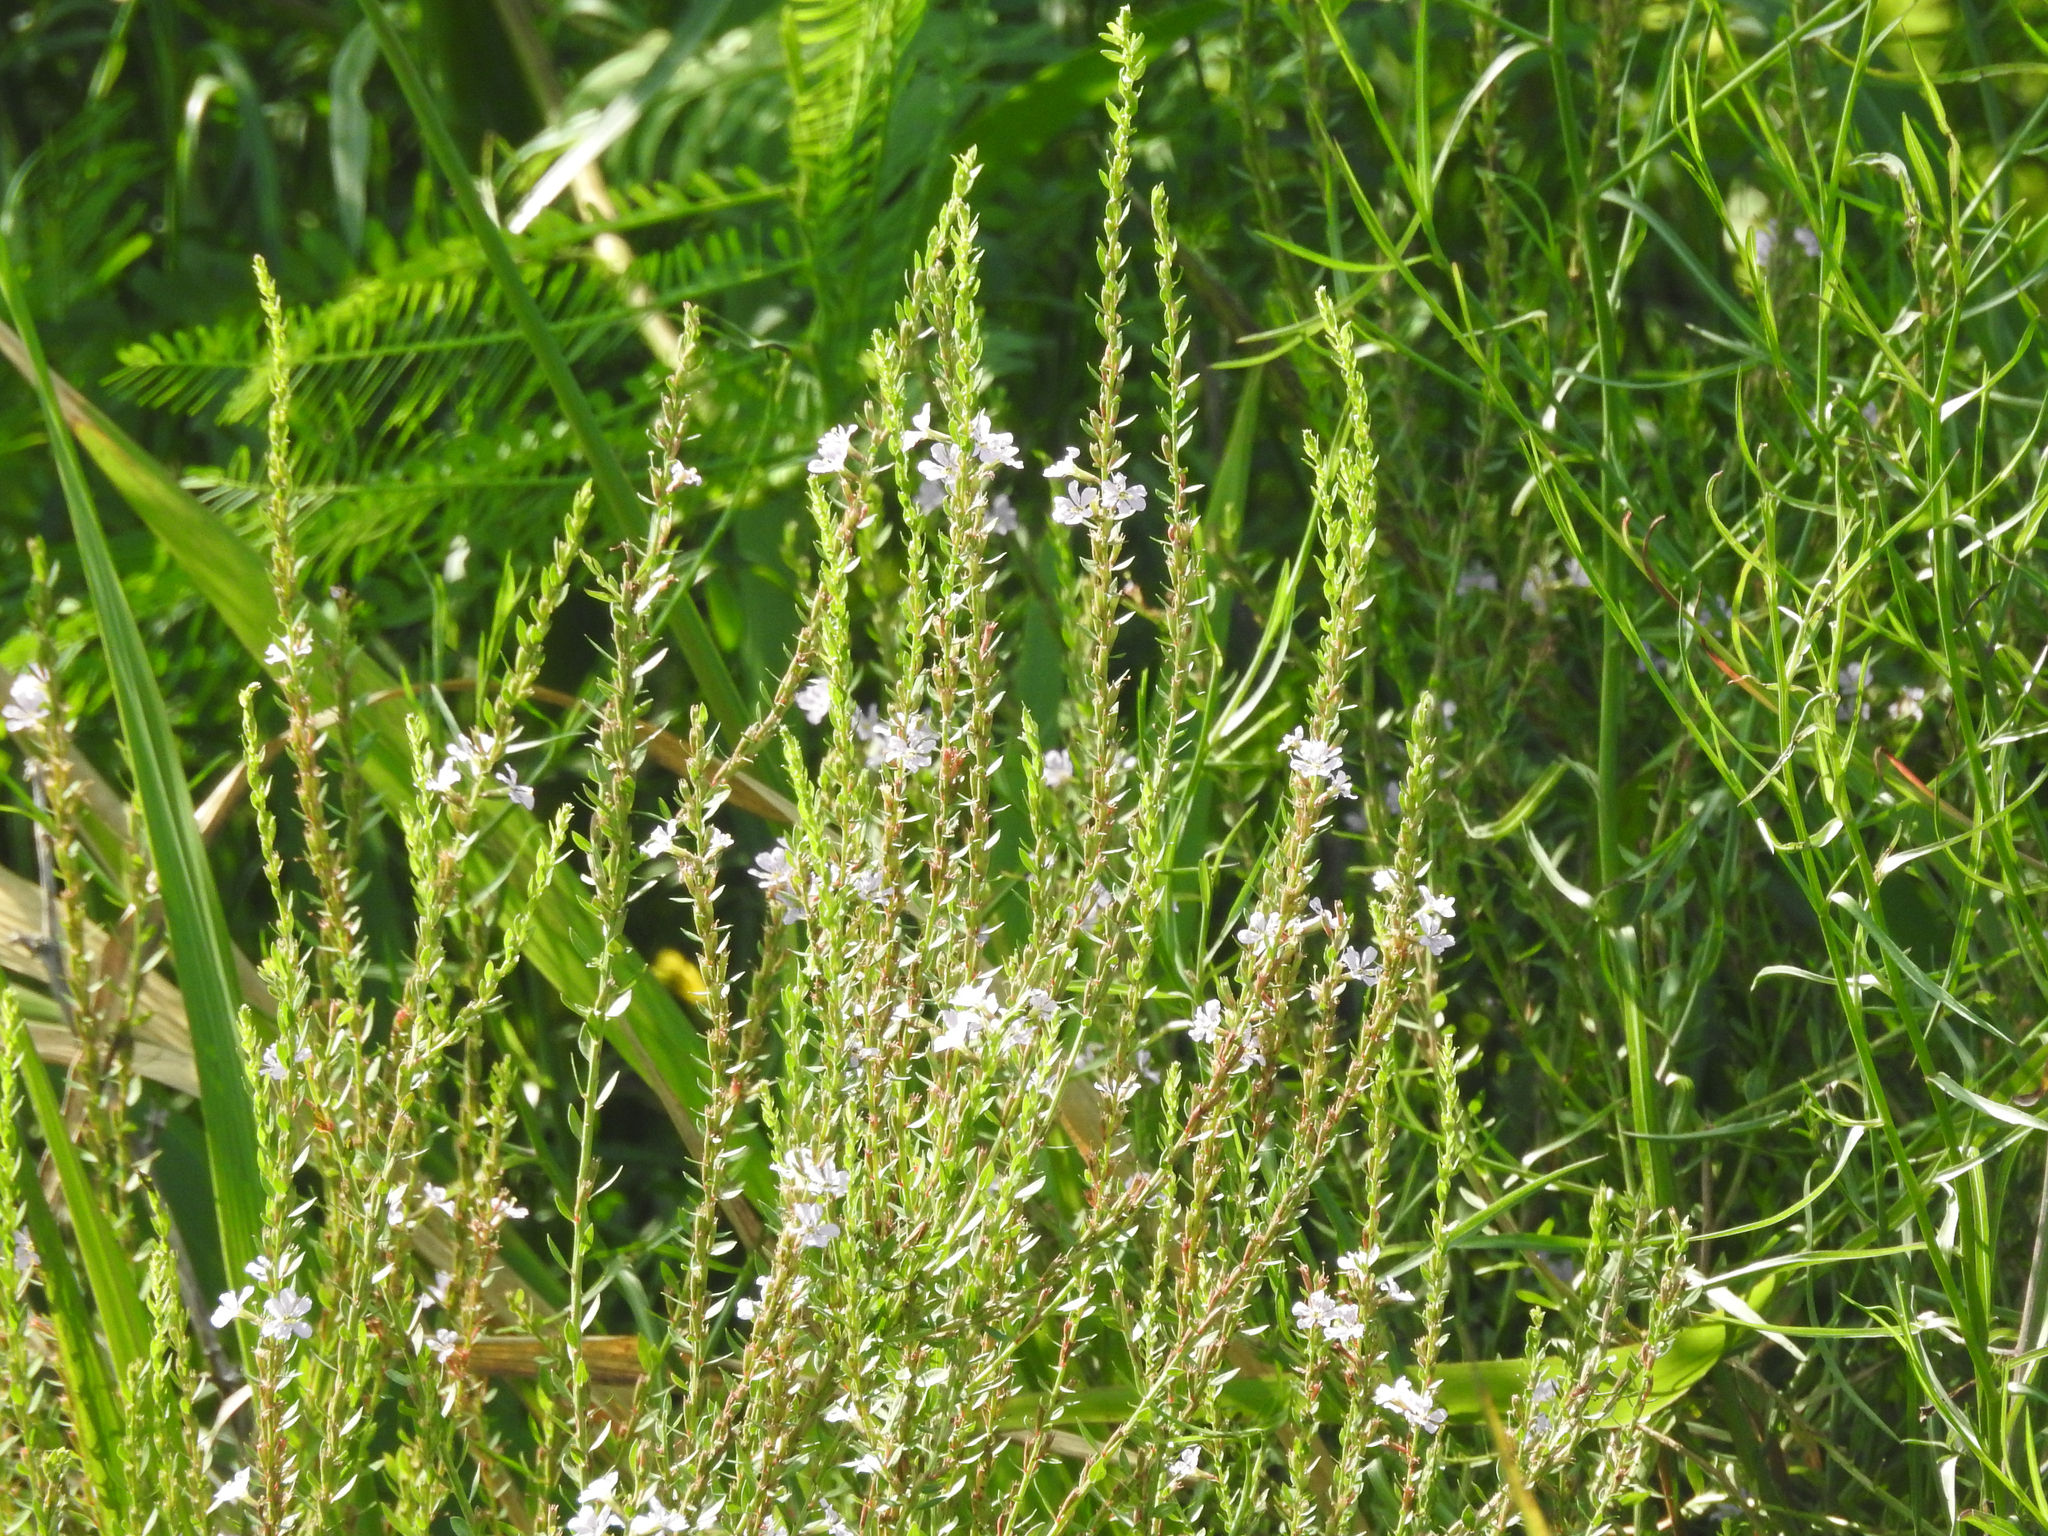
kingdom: Plantae
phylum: Tracheophyta
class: Magnoliopsida
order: Myrtales
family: Lythraceae
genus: Lythrum
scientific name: Lythrum alatum
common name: Winged loosestrife
